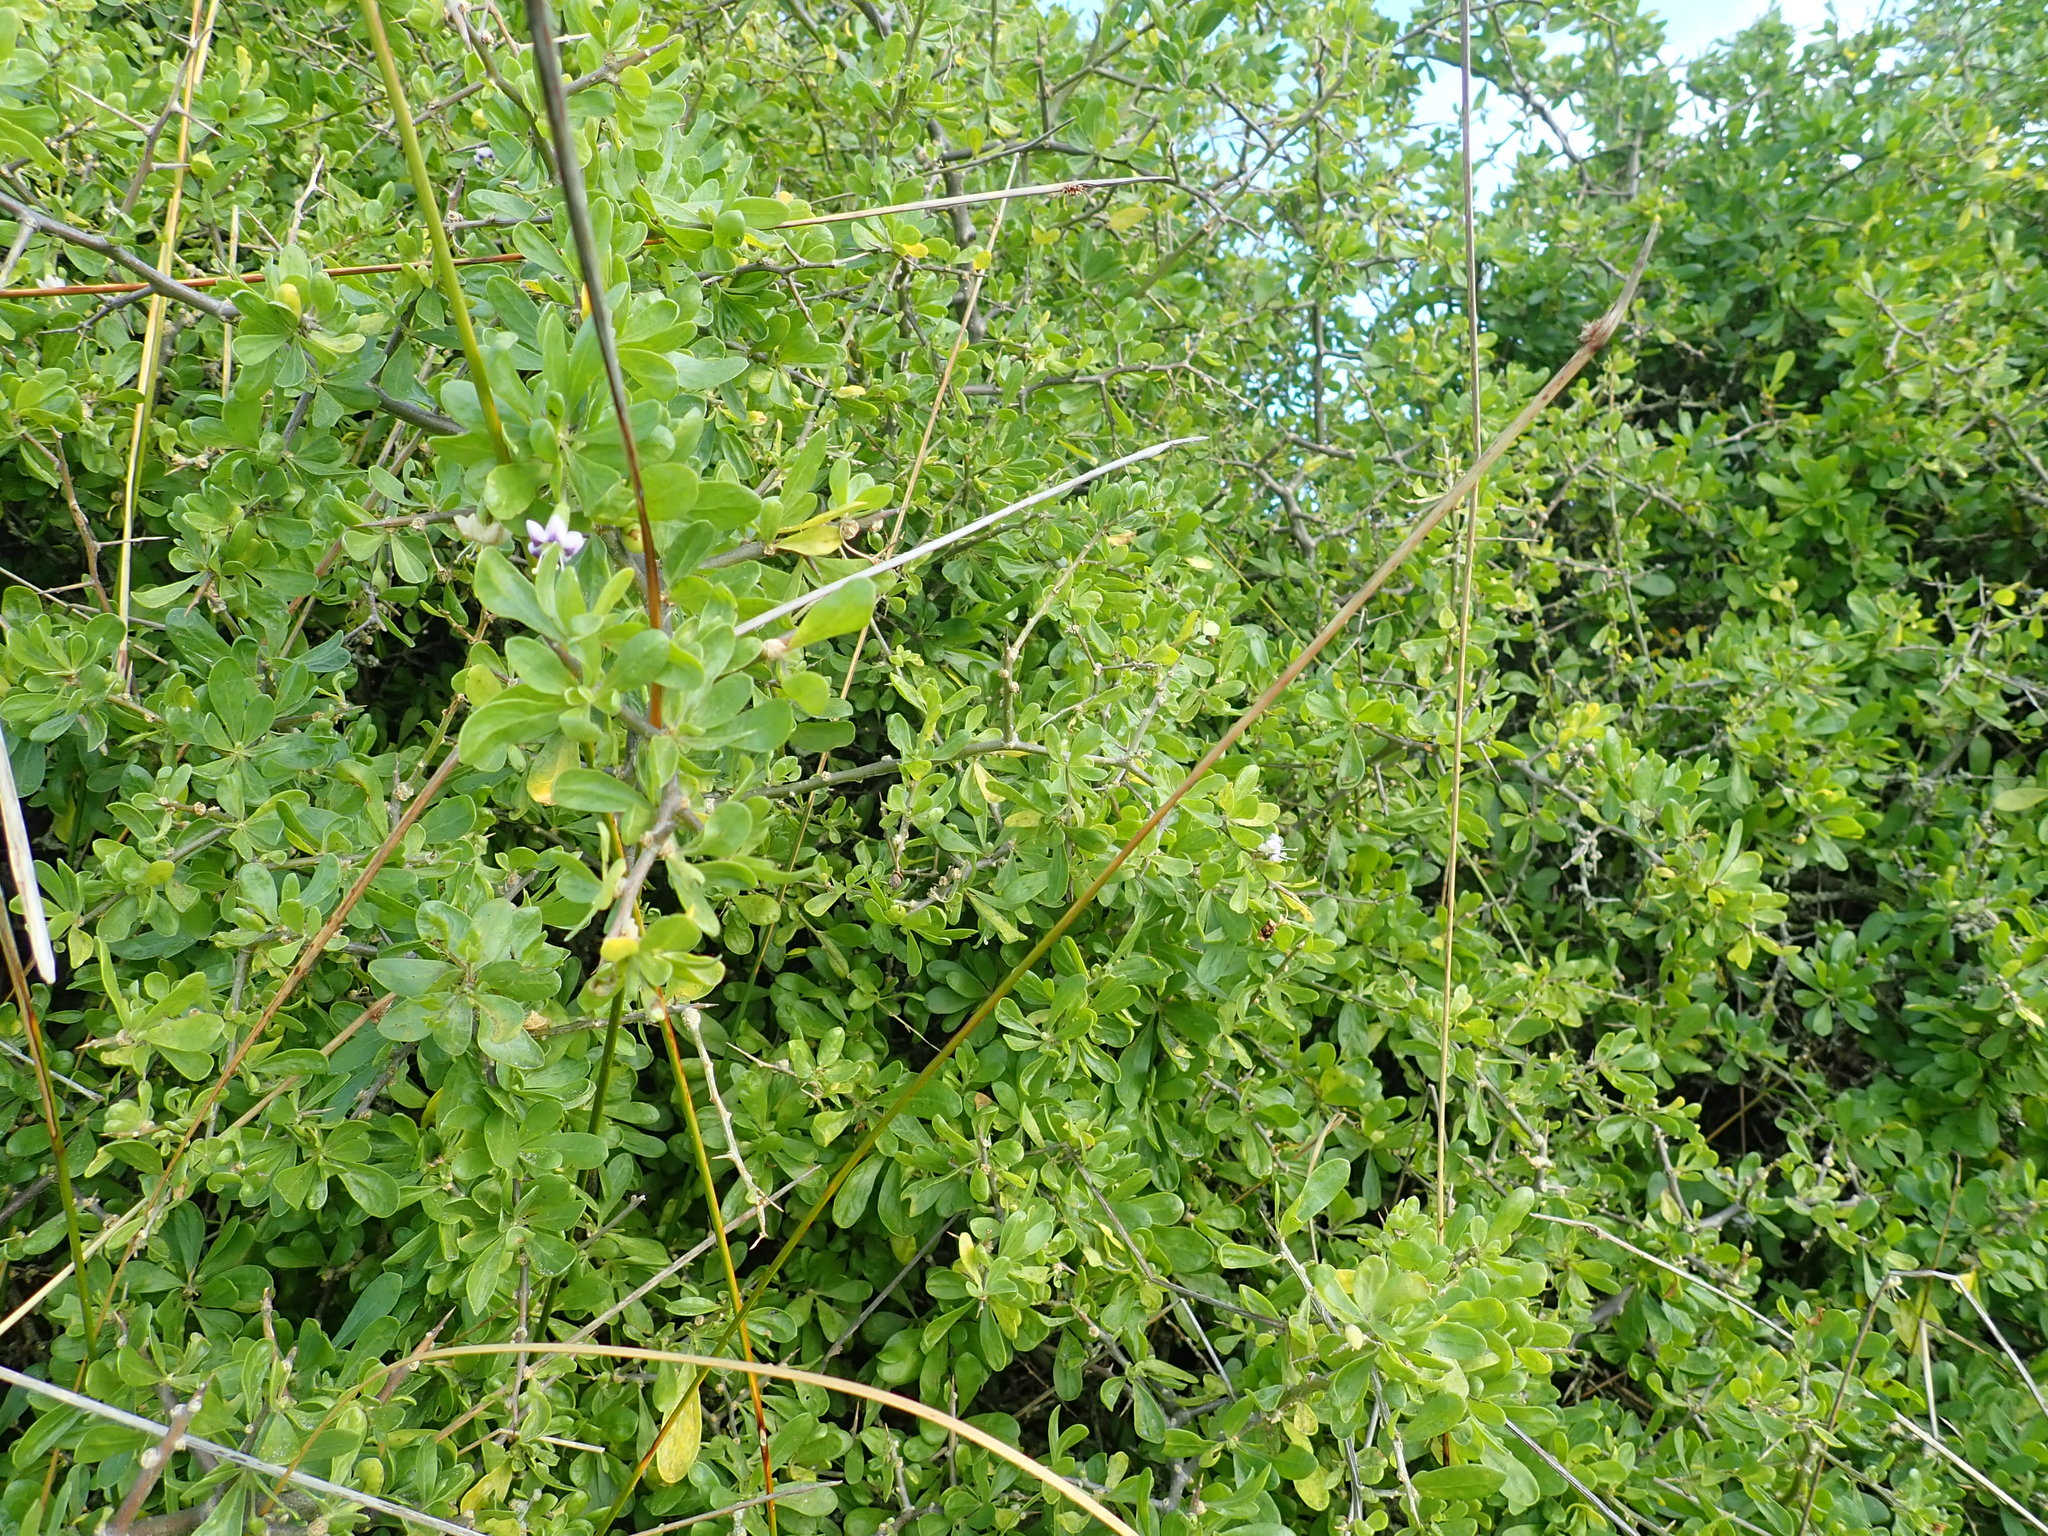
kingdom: Plantae
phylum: Tracheophyta
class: Magnoliopsida
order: Solanales
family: Solanaceae
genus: Lycium
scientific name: Lycium ferocissimum
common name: African boxthorn
